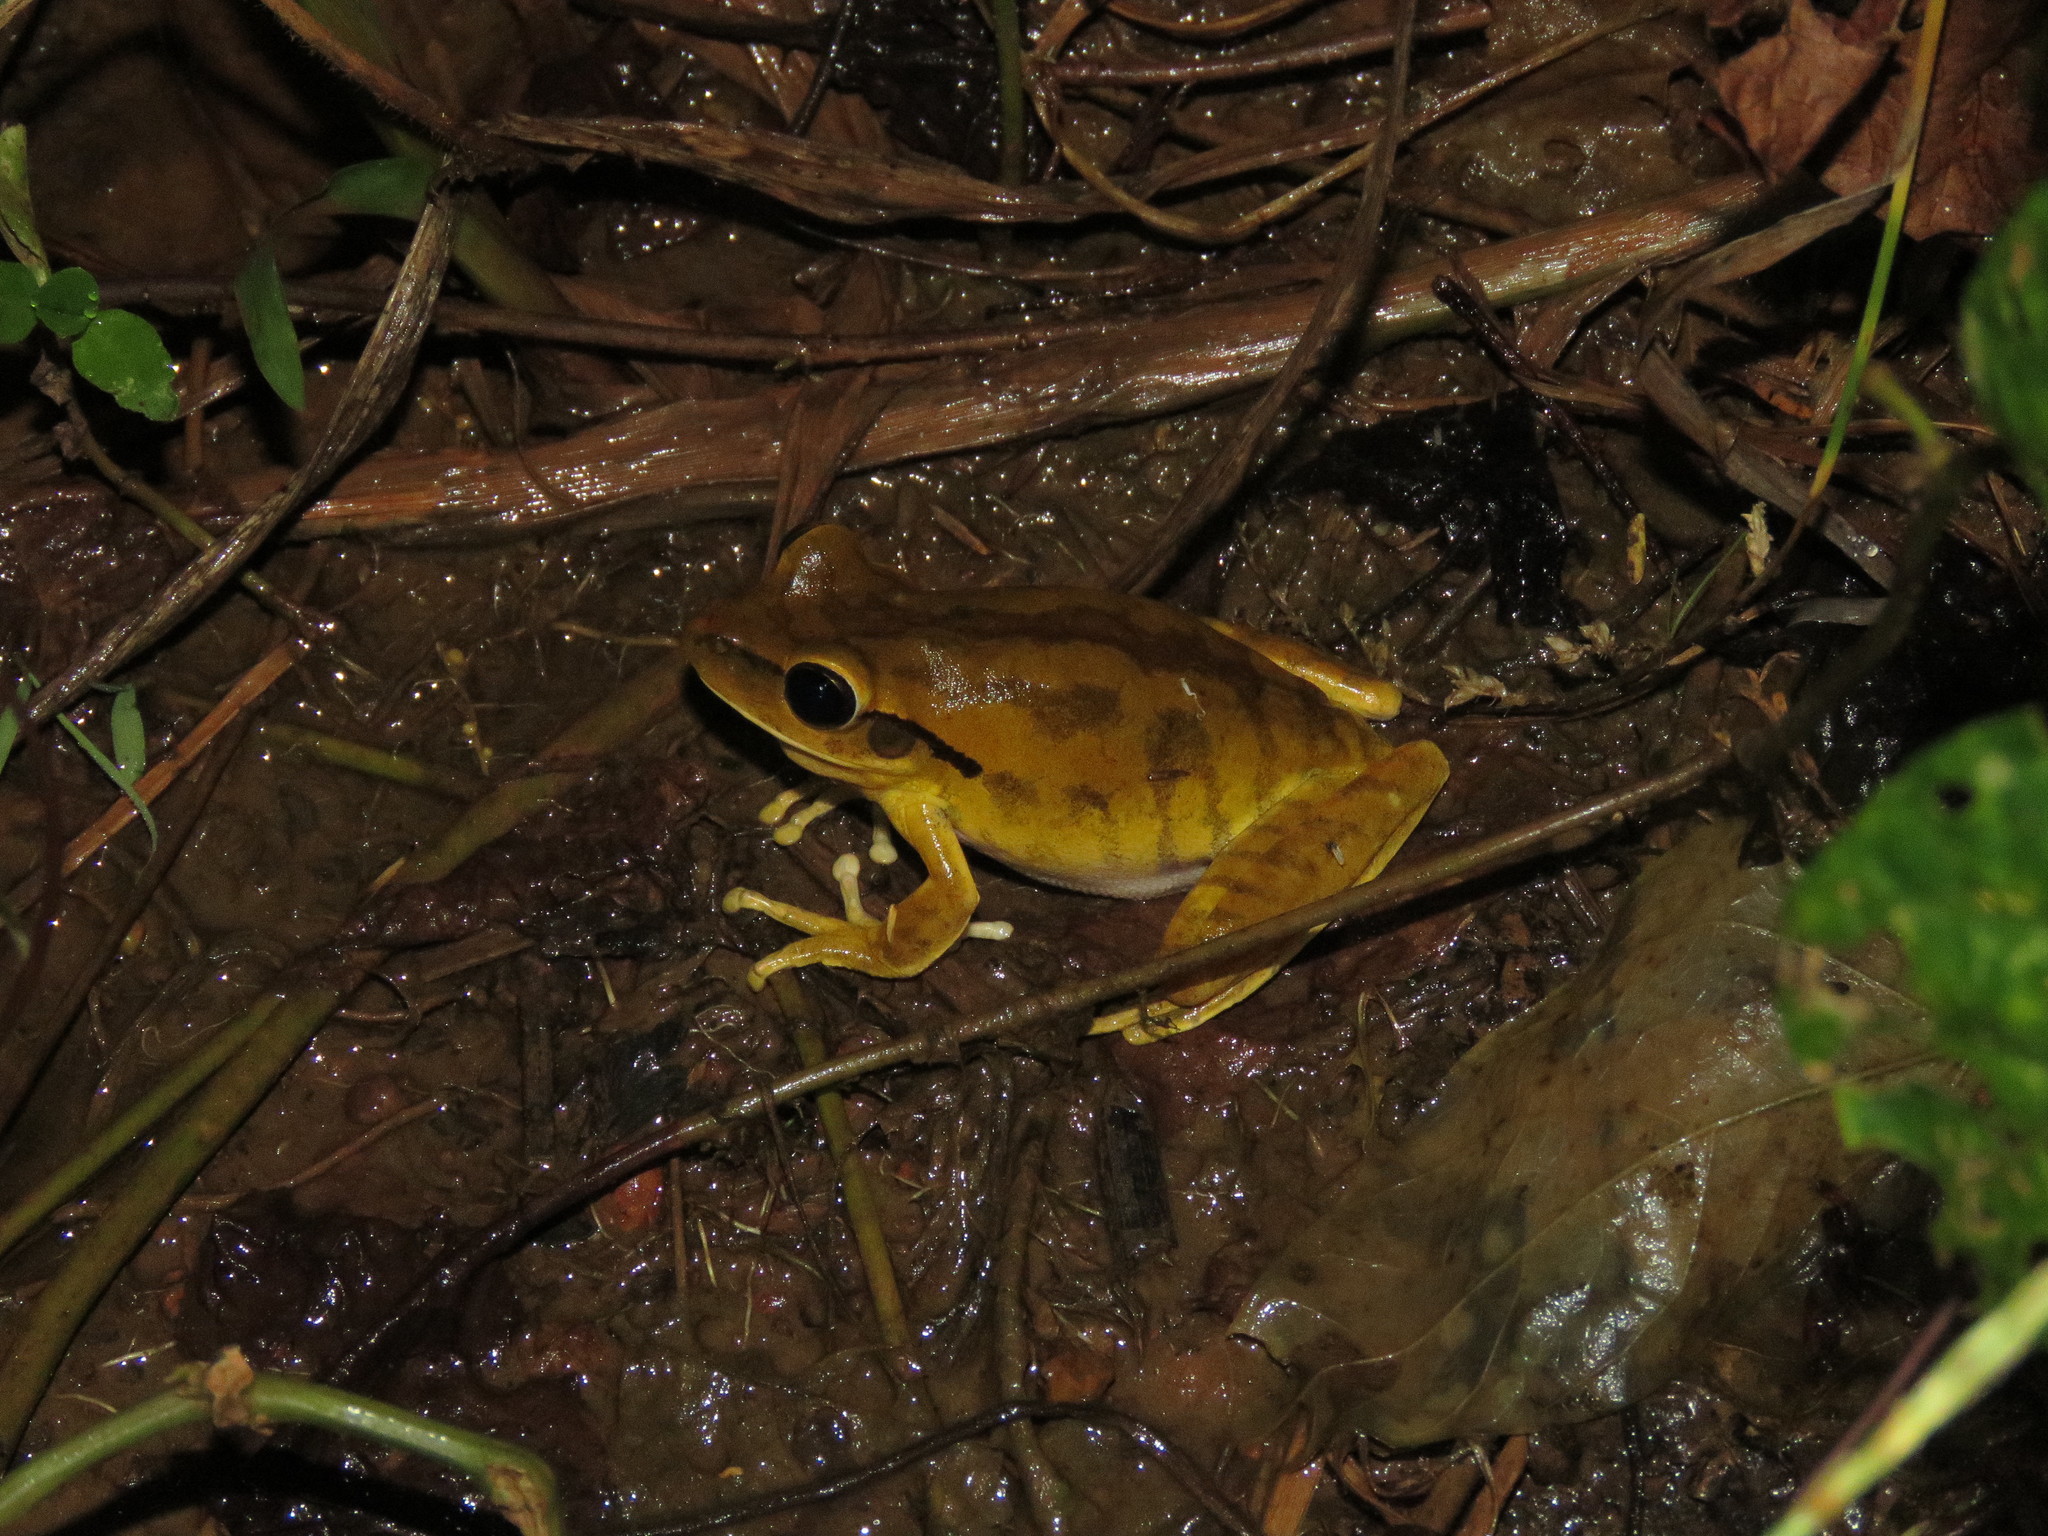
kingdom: Animalia
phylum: Chordata
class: Amphibia
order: Anura
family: Hylidae
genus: Boana
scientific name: Boana raniceps
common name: Chaco treefrog
